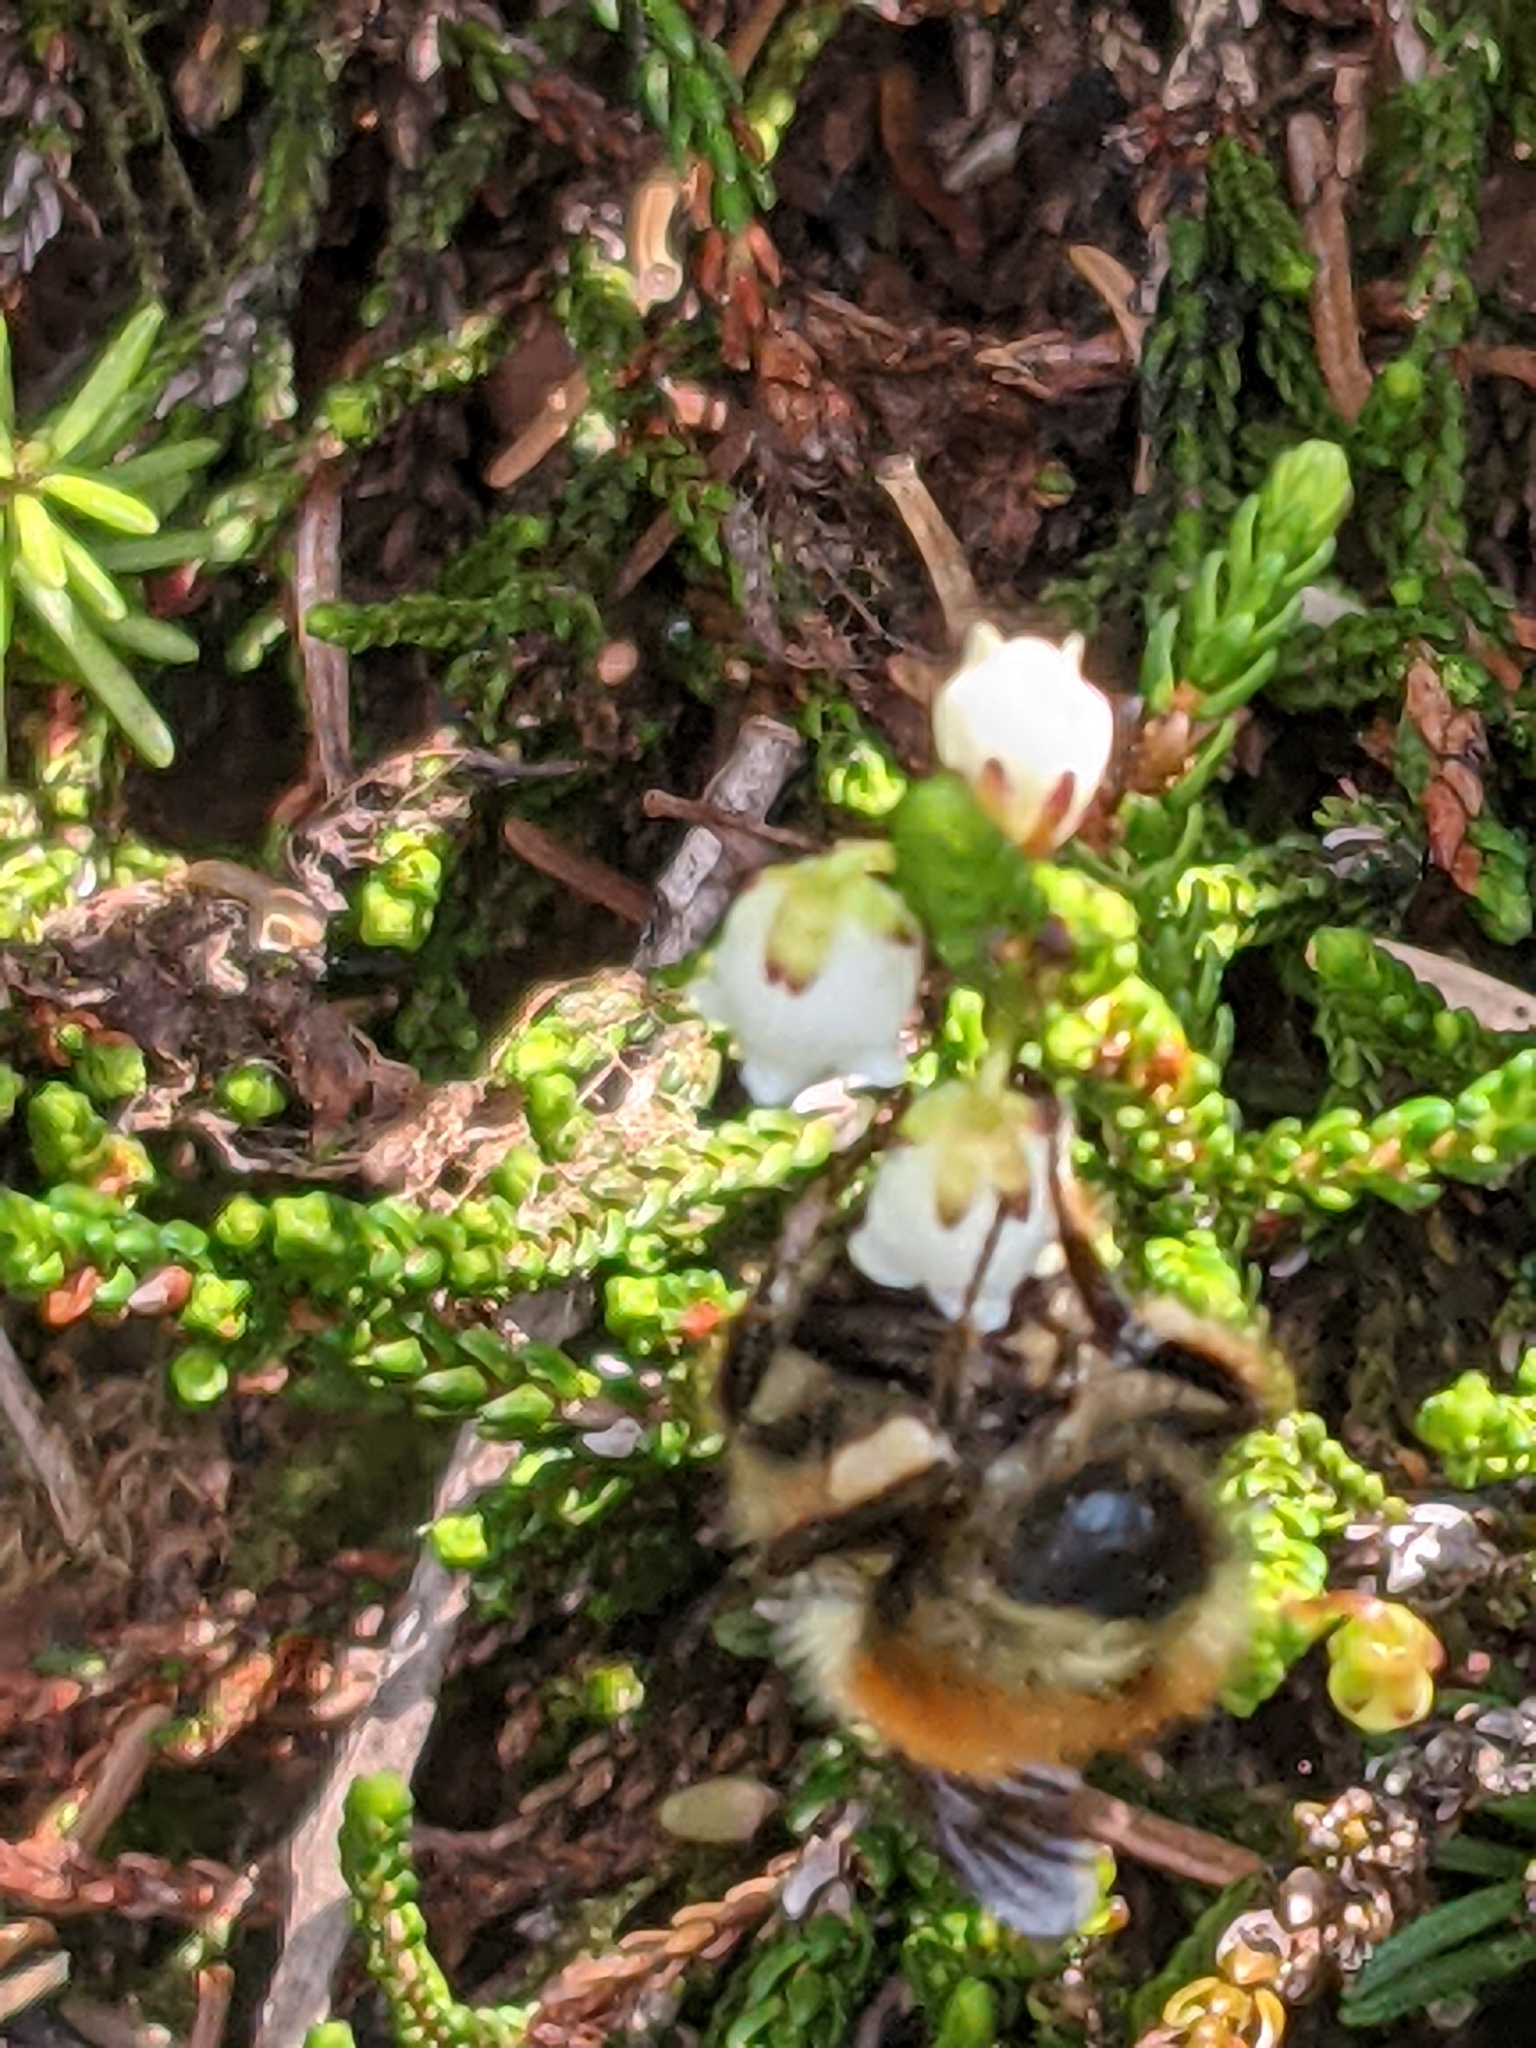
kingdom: Animalia
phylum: Arthropoda
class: Insecta
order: Hymenoptera
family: Apidae
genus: Bombus
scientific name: Bombus sylvicola
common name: Forest bumble bee
